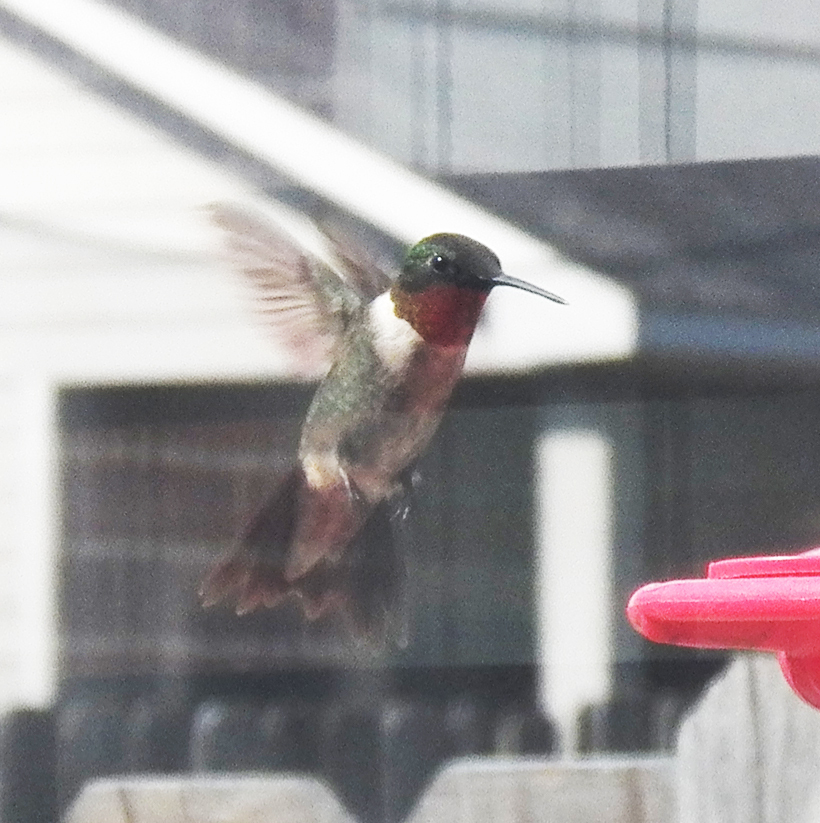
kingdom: Animalia
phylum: Chordata
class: Aves
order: Apodiformes
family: Trochilidae
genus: Archilochus
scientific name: Archilochus colubris
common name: Ruby-throated hummingbird
